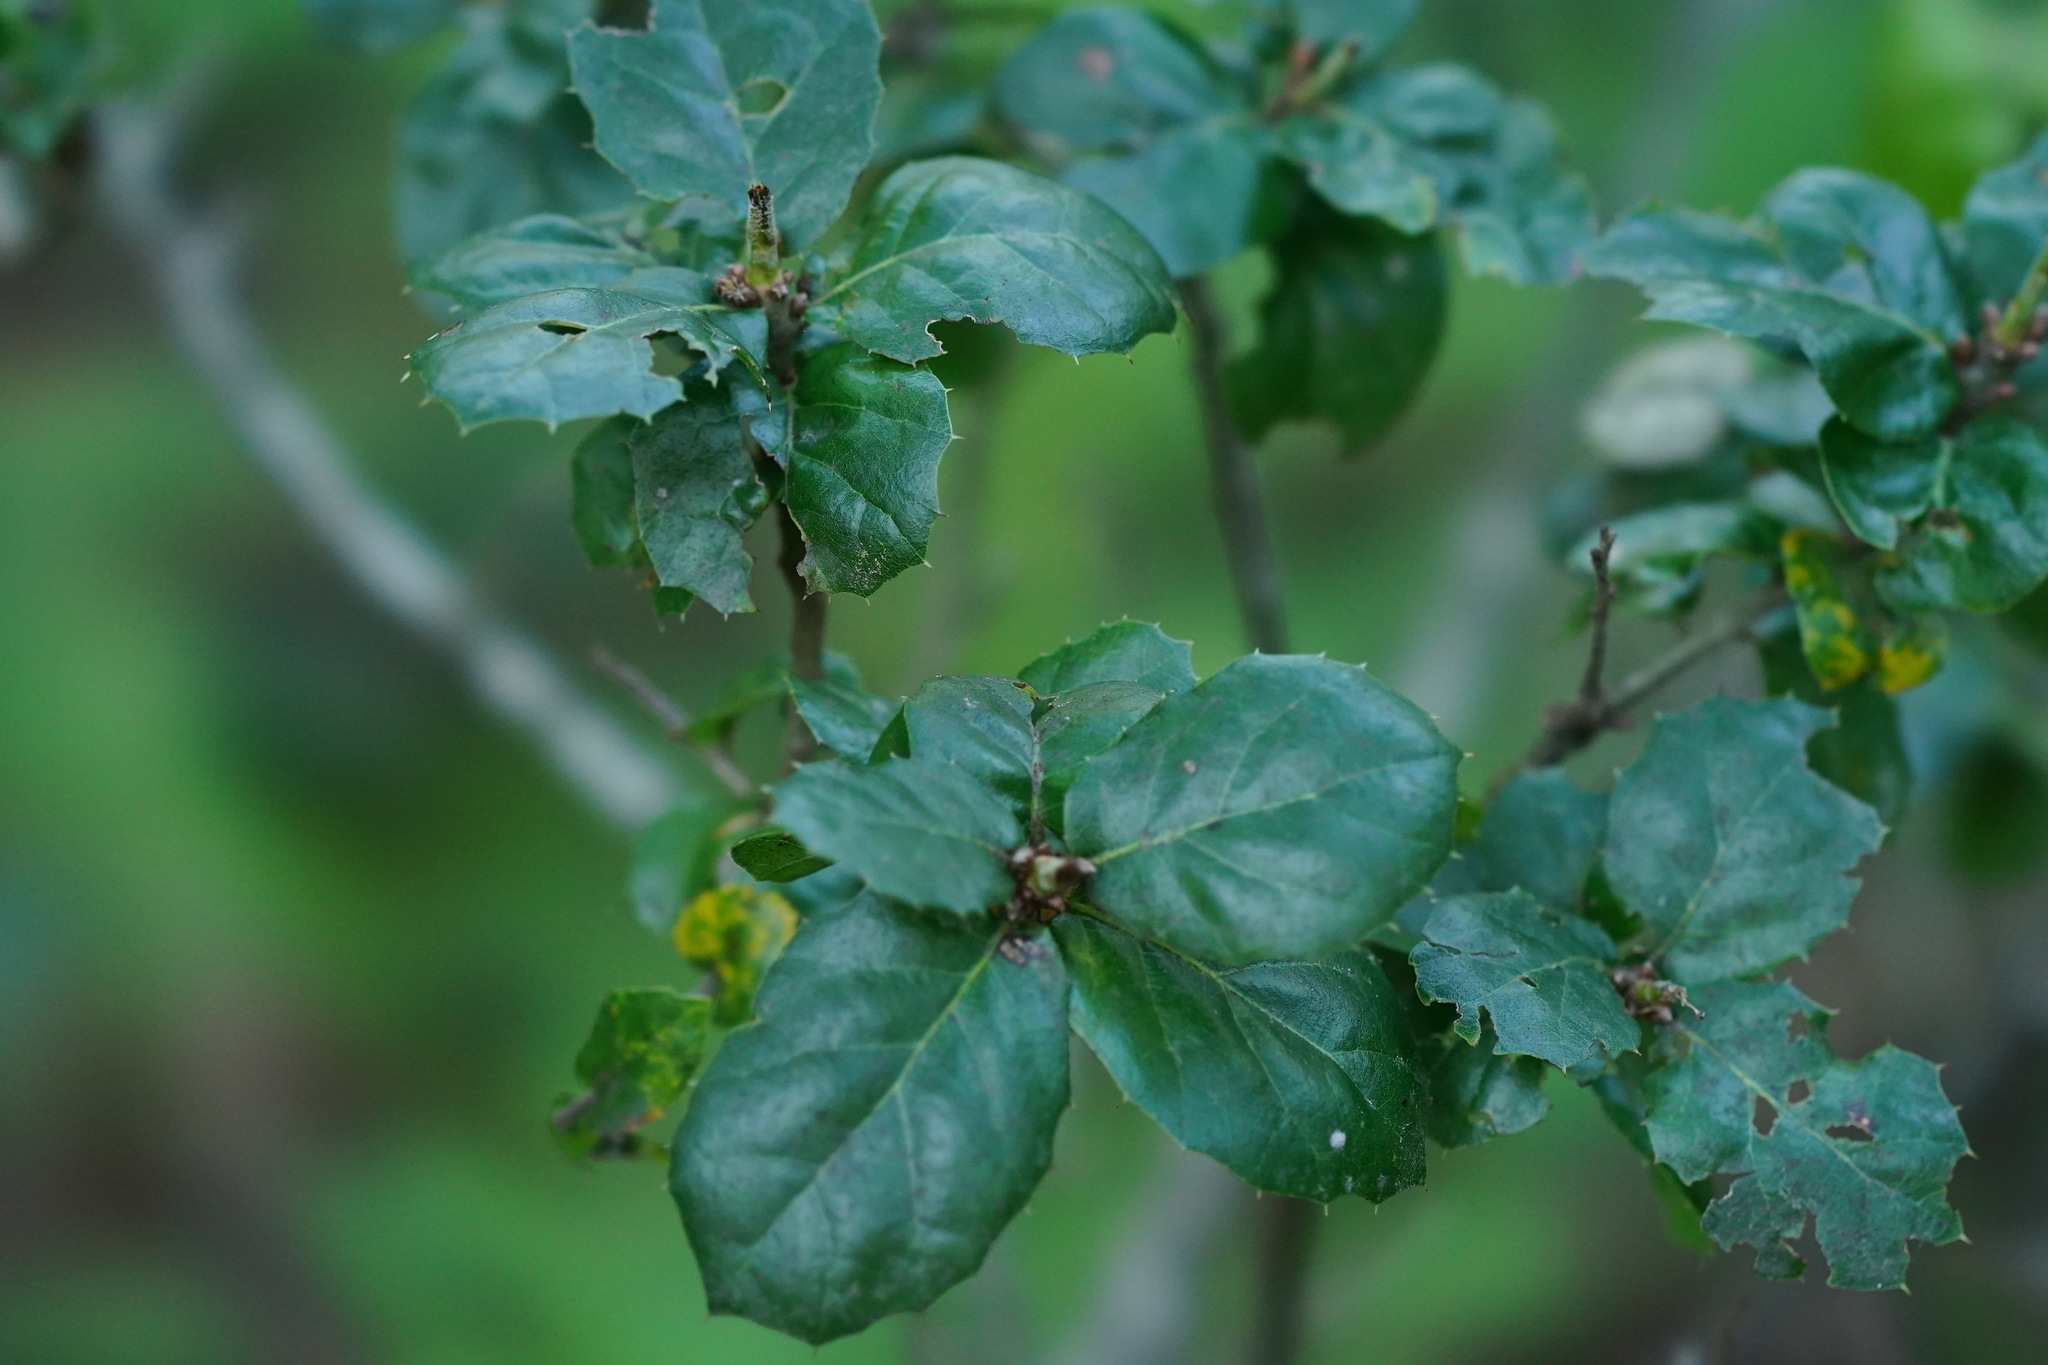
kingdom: Plantae
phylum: Tracheophyta
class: Magnoliopsida
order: Fagales
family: Fagaceae
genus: Quercus
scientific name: Quercus agrifolia
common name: California live oak
